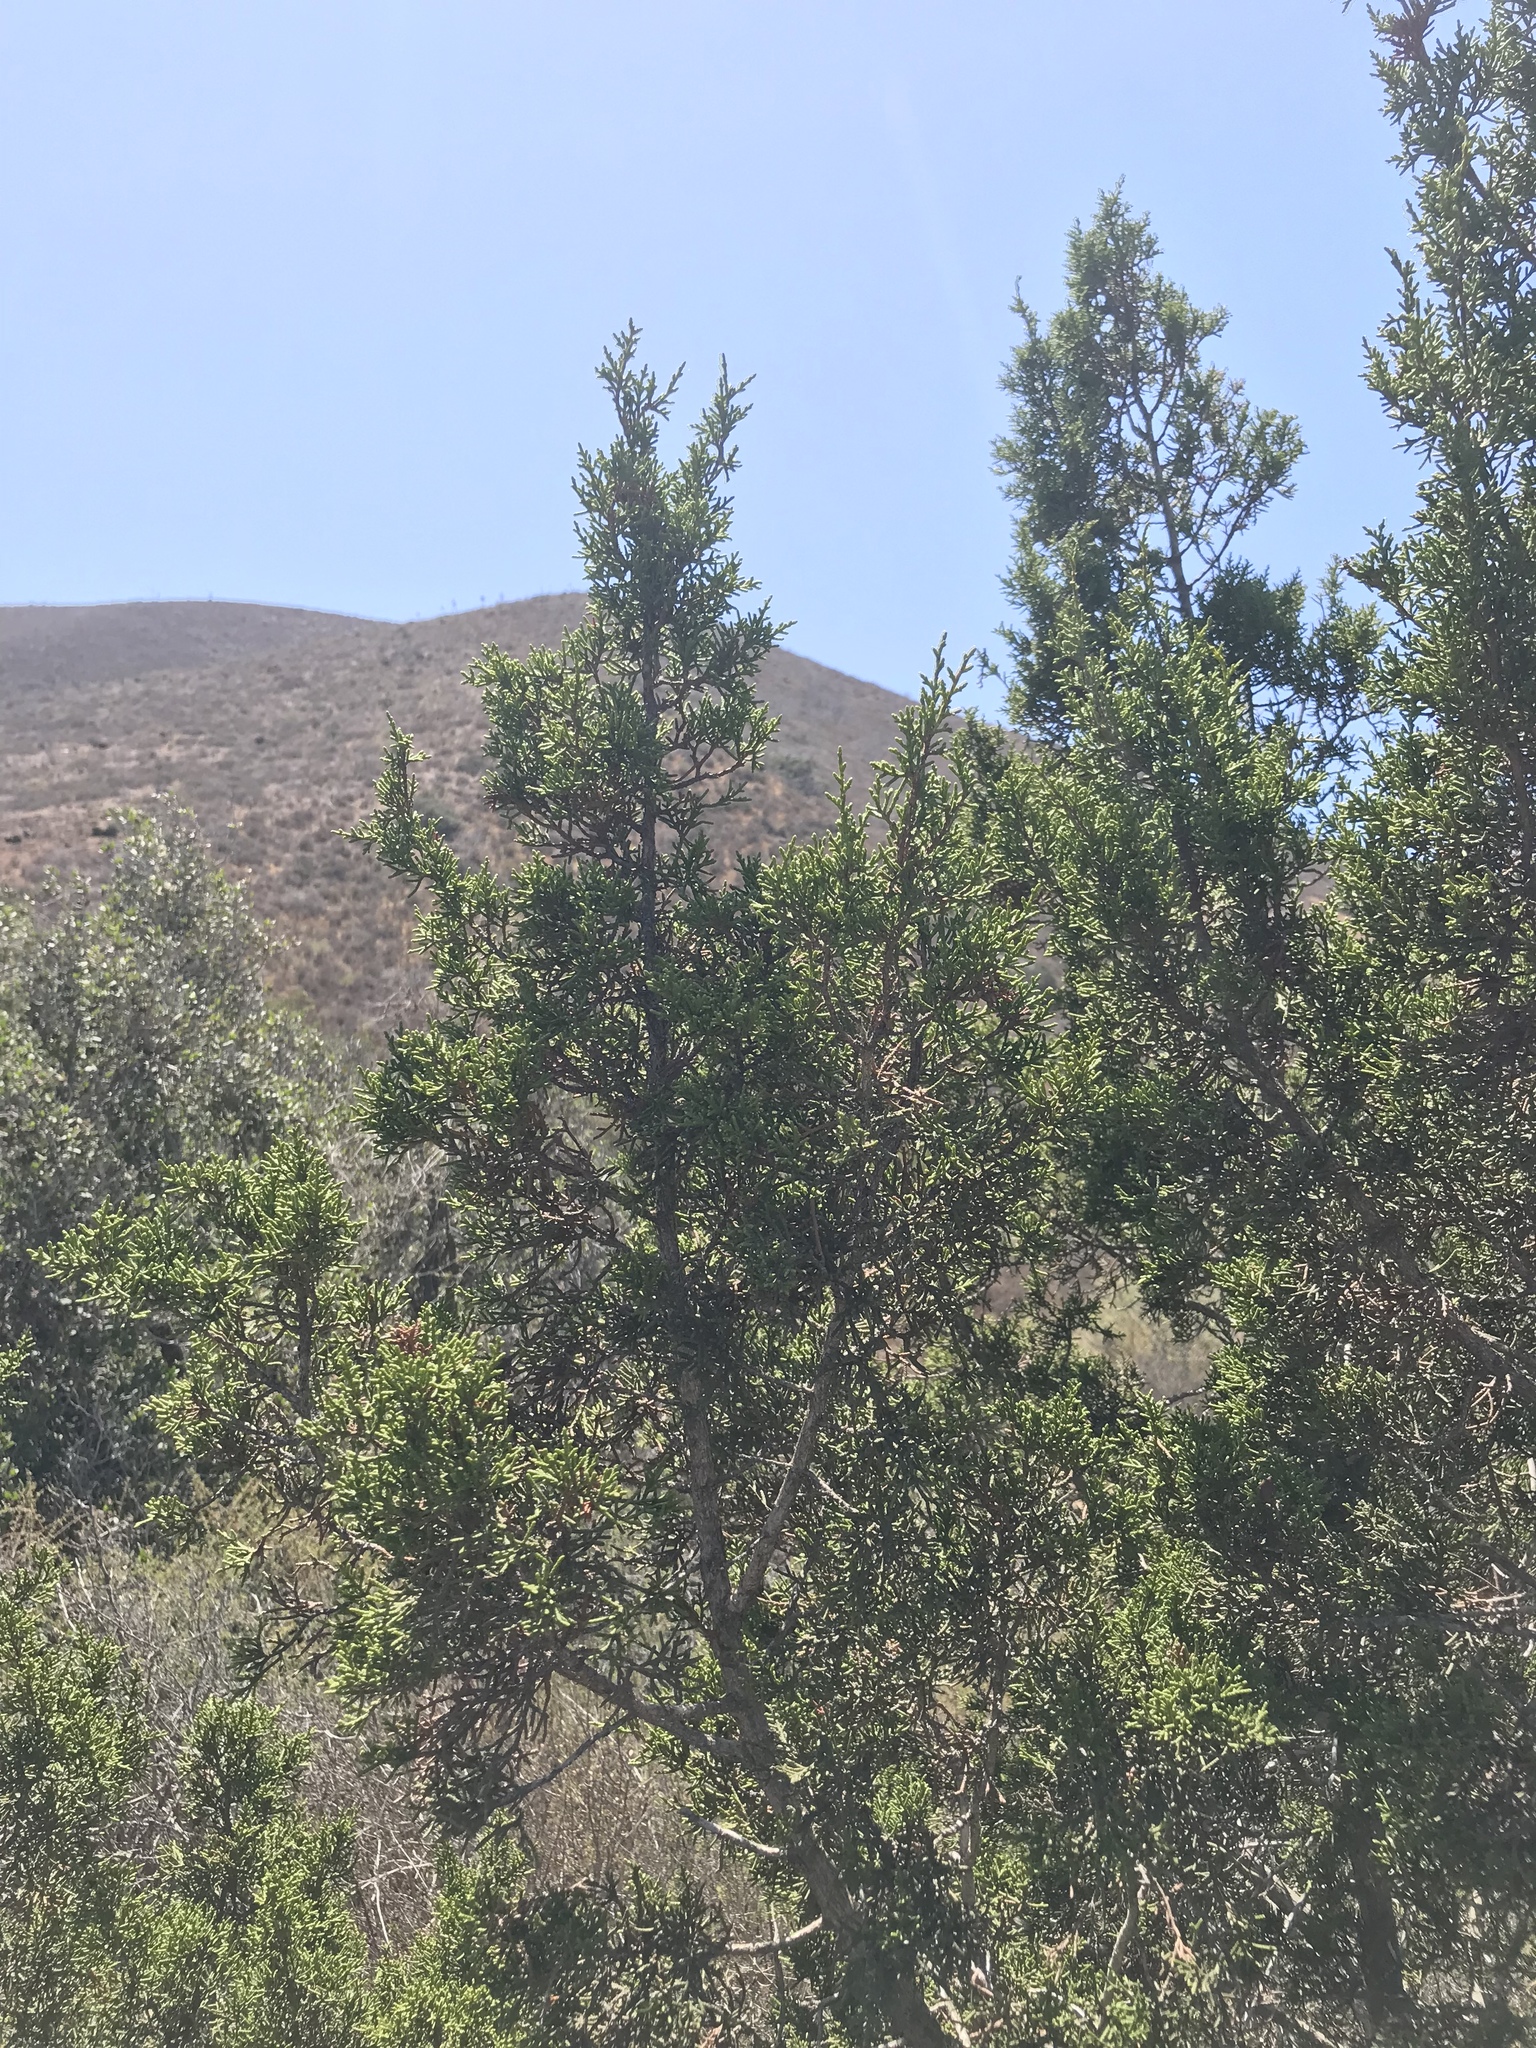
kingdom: Plantae
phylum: Tracheophyta
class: Pinopsida
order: Pinales
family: Cupressaceae
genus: Juniperus
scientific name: Juniperus californica
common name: California juniper
